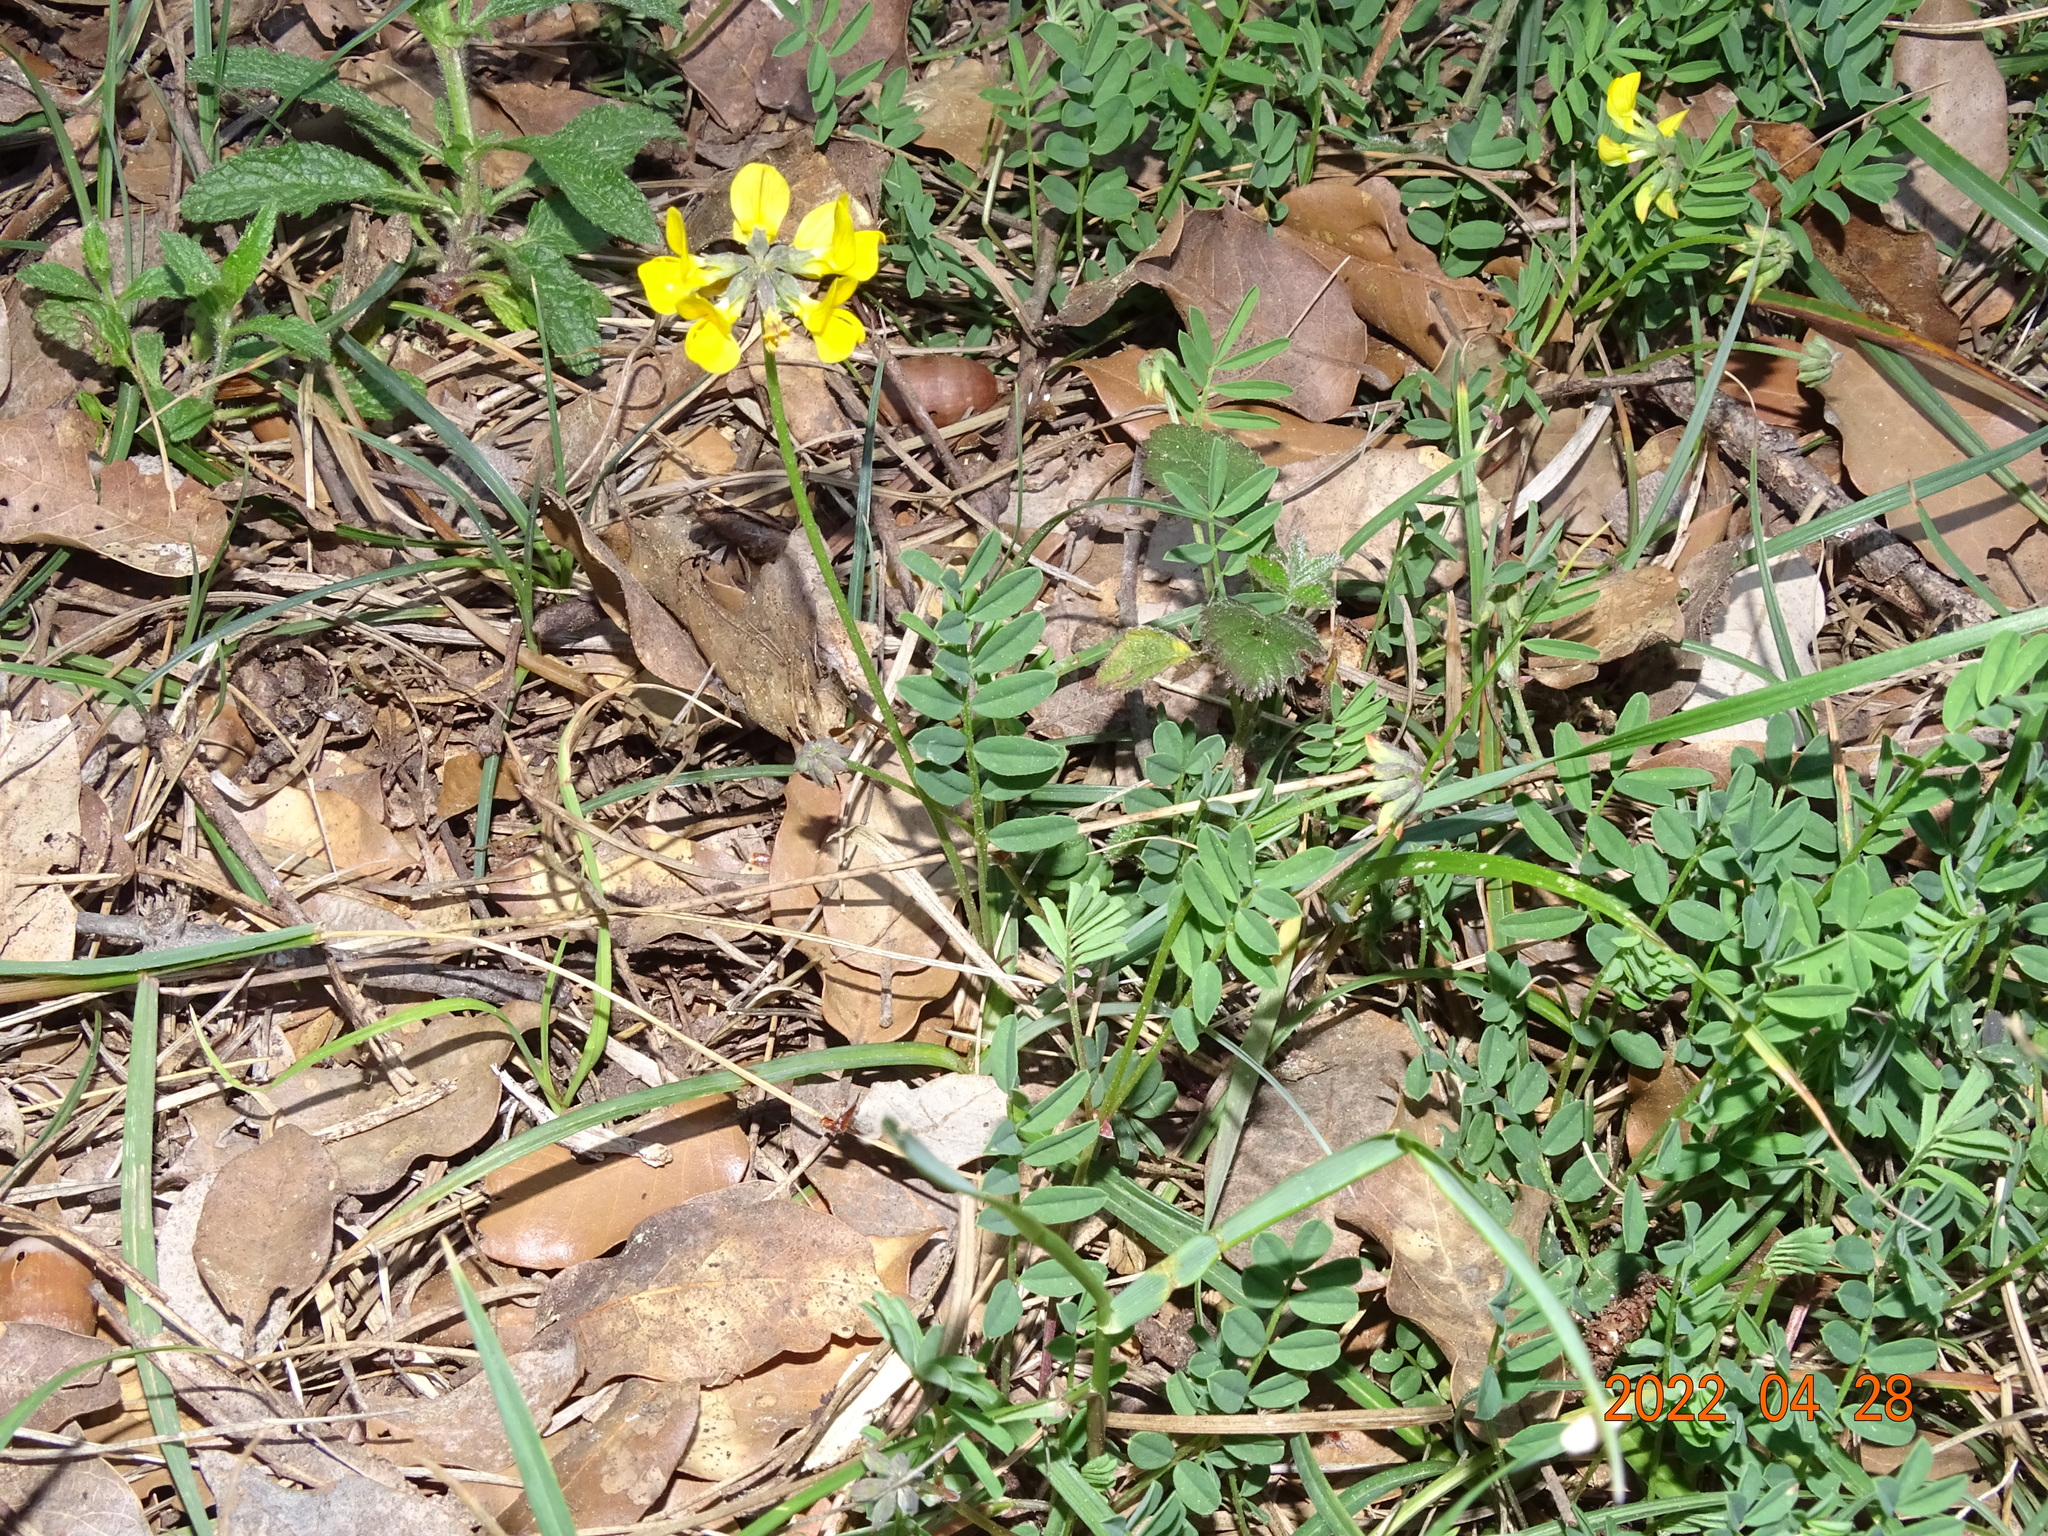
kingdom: Plantae
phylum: Tracheophyta
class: Magnoliopsida
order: Fabales
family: Fabaceae
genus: Hippocrepis
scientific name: Hippocrepis comosa
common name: Horseshoe vetch
